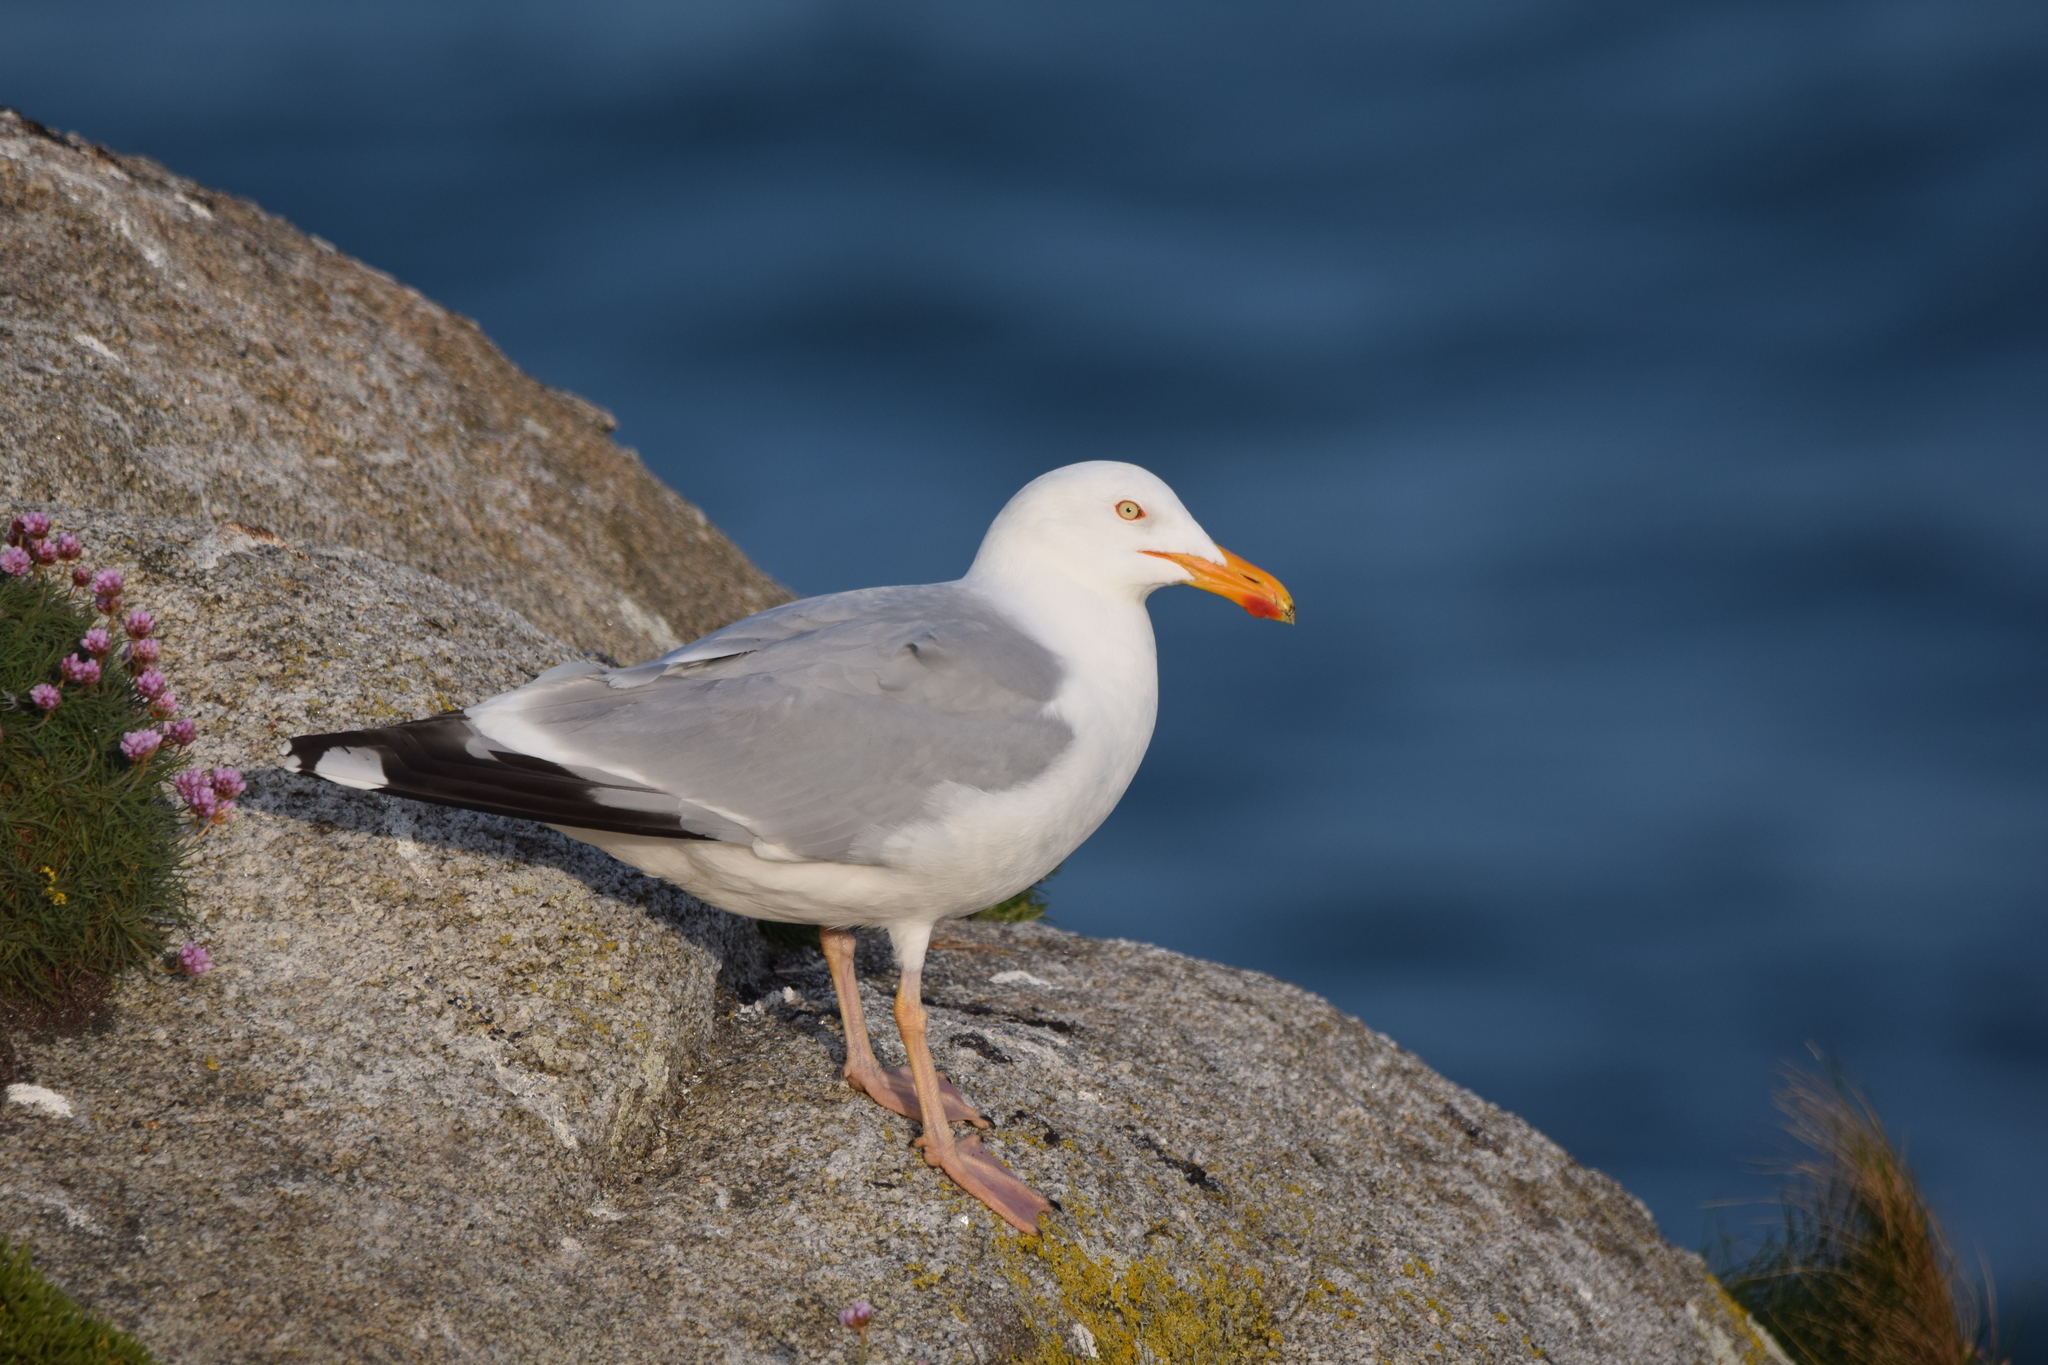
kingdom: Animalia
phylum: Chordata
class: Aves
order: Charadriiformes
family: Laridae
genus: Larus
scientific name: Larus argentatus
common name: Herring gull
